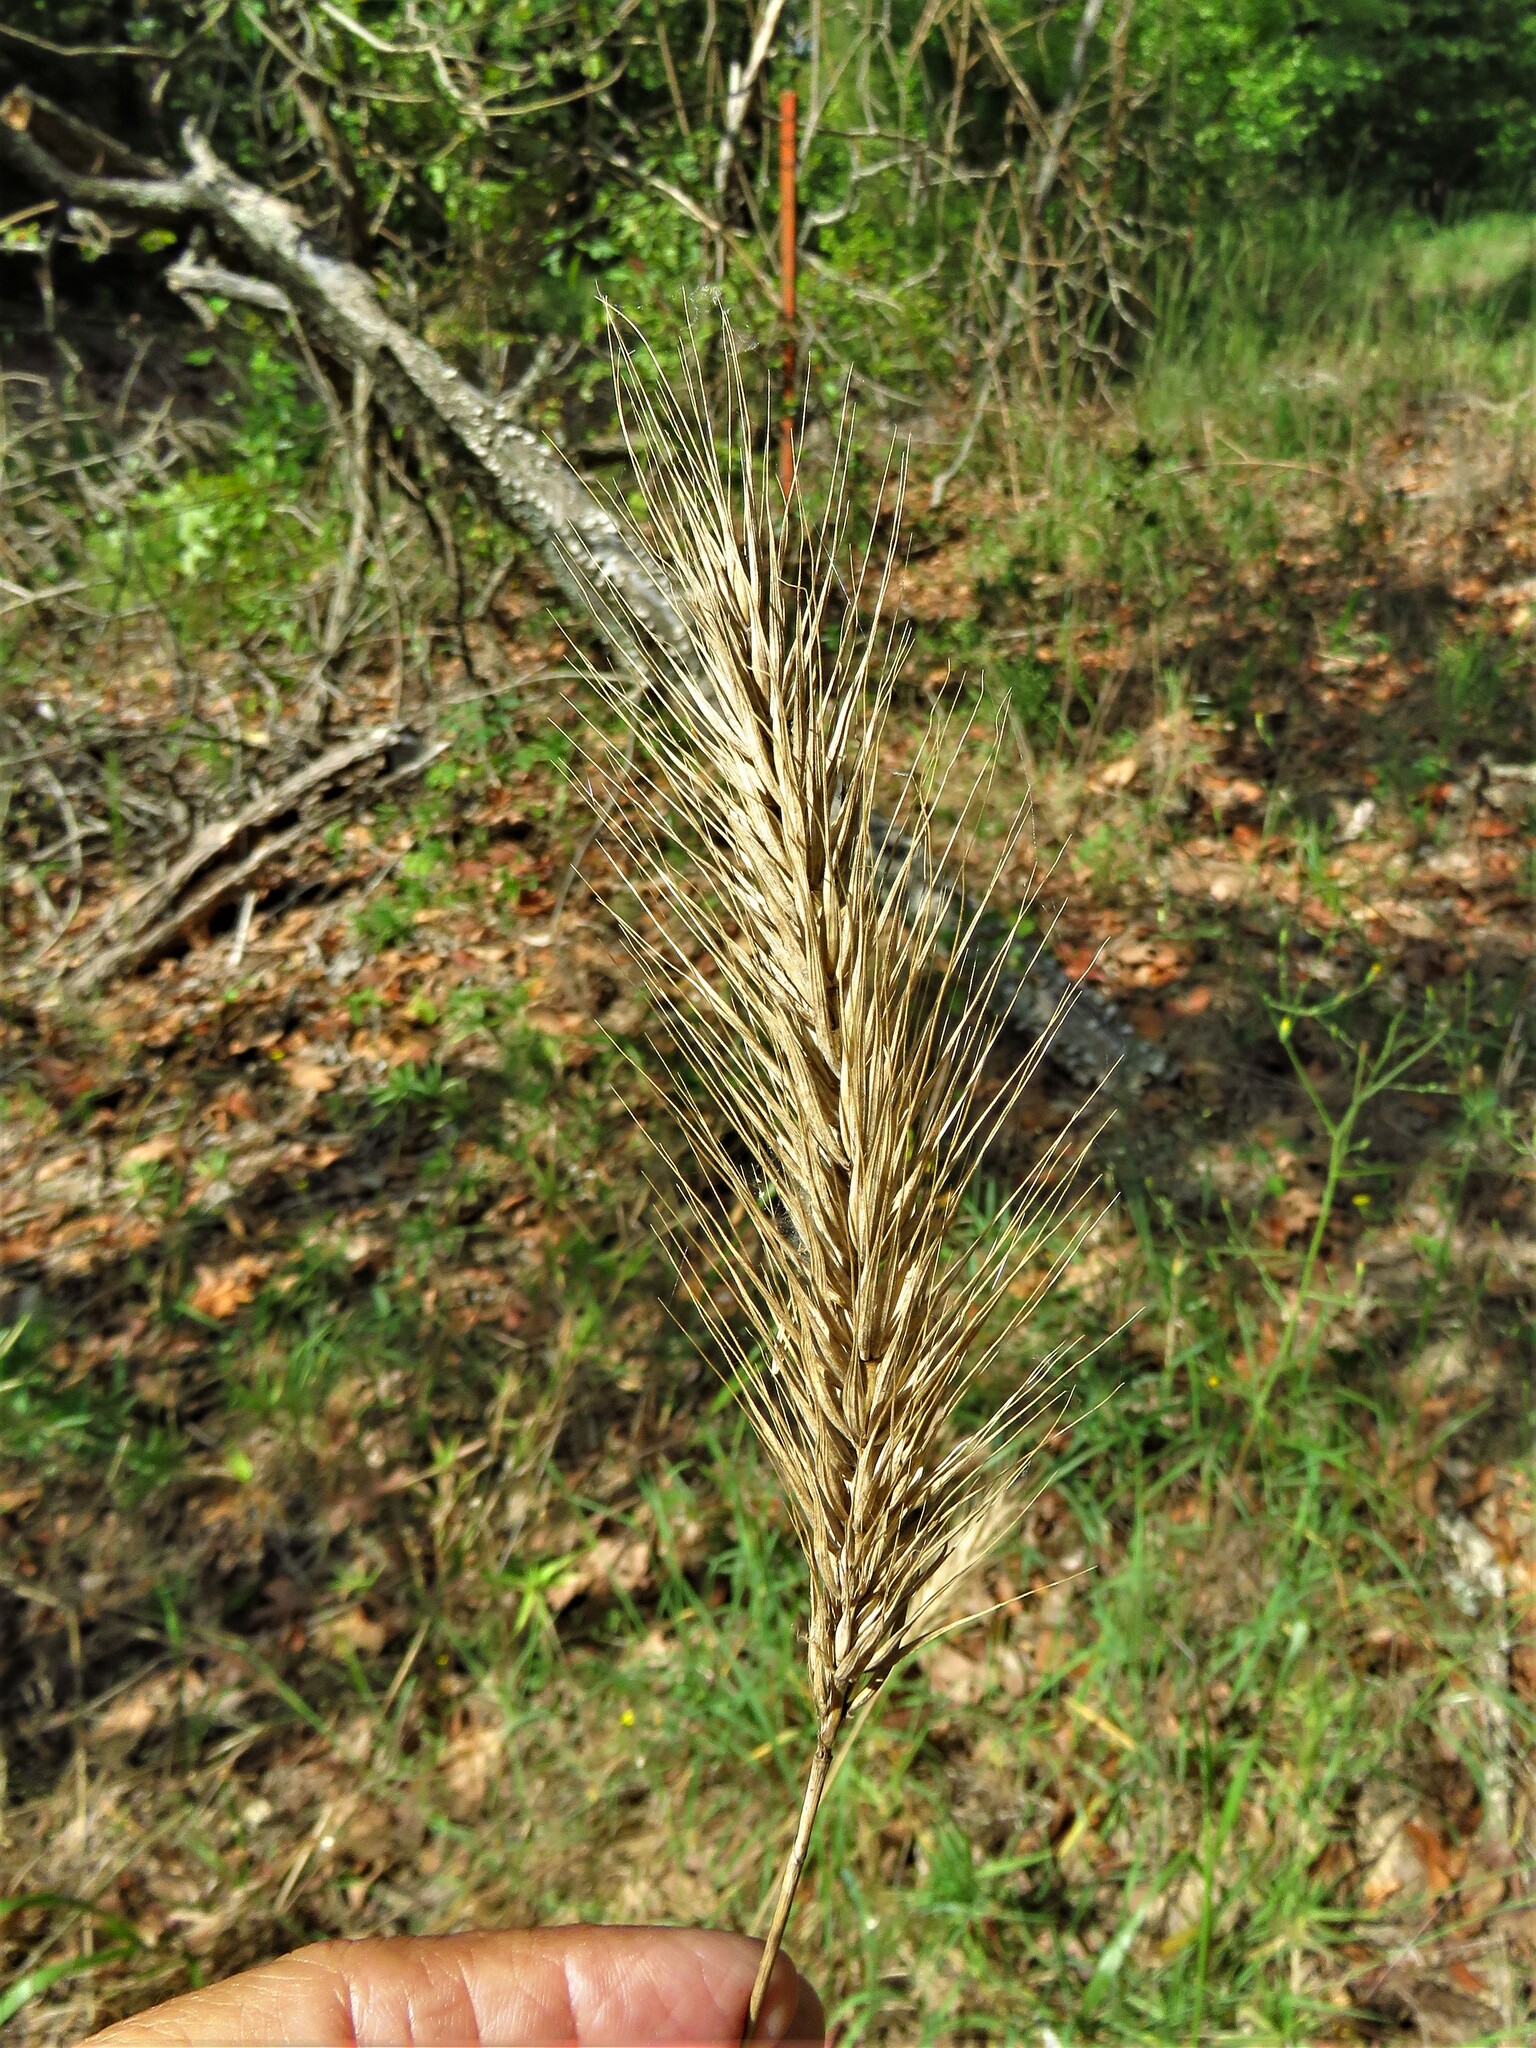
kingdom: Plantae
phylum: Tracheophyta
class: Liliopsida
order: Poales
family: Poaceae
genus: Elymus
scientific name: Elymus virginicus
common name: Common eastern wildrye
